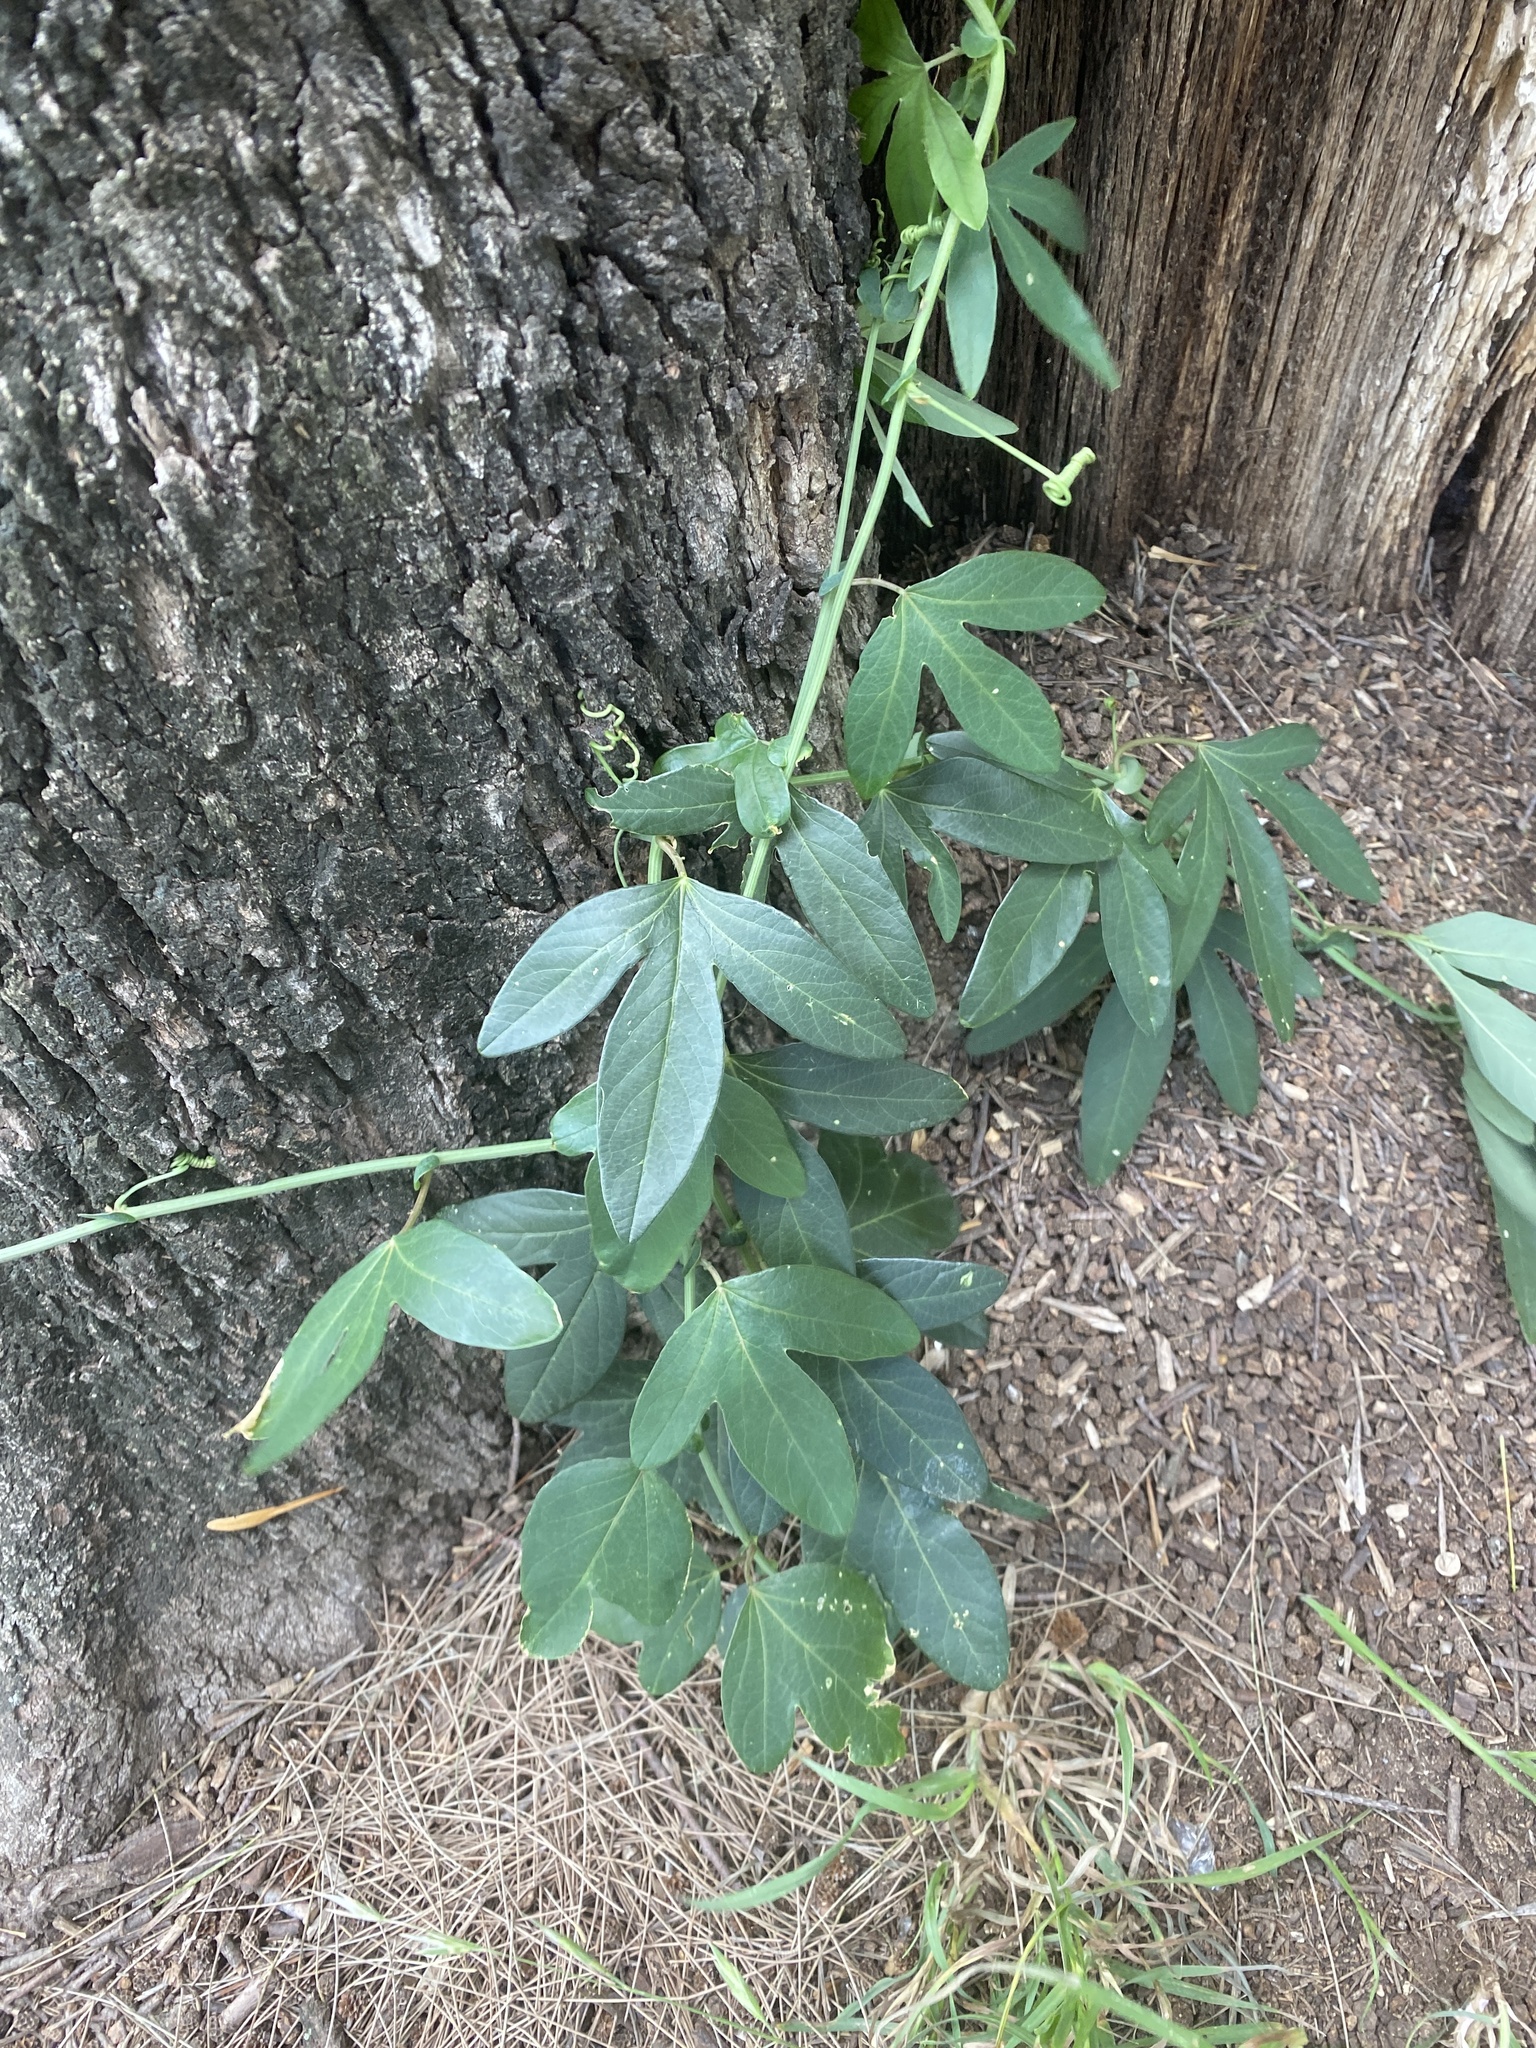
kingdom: Plantae
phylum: Tracheophyta
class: Magnoliopsida
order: Malpighiales
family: Passifloraceae
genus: Passiflora
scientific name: Passiflora caerulea
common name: Blue passionflower
